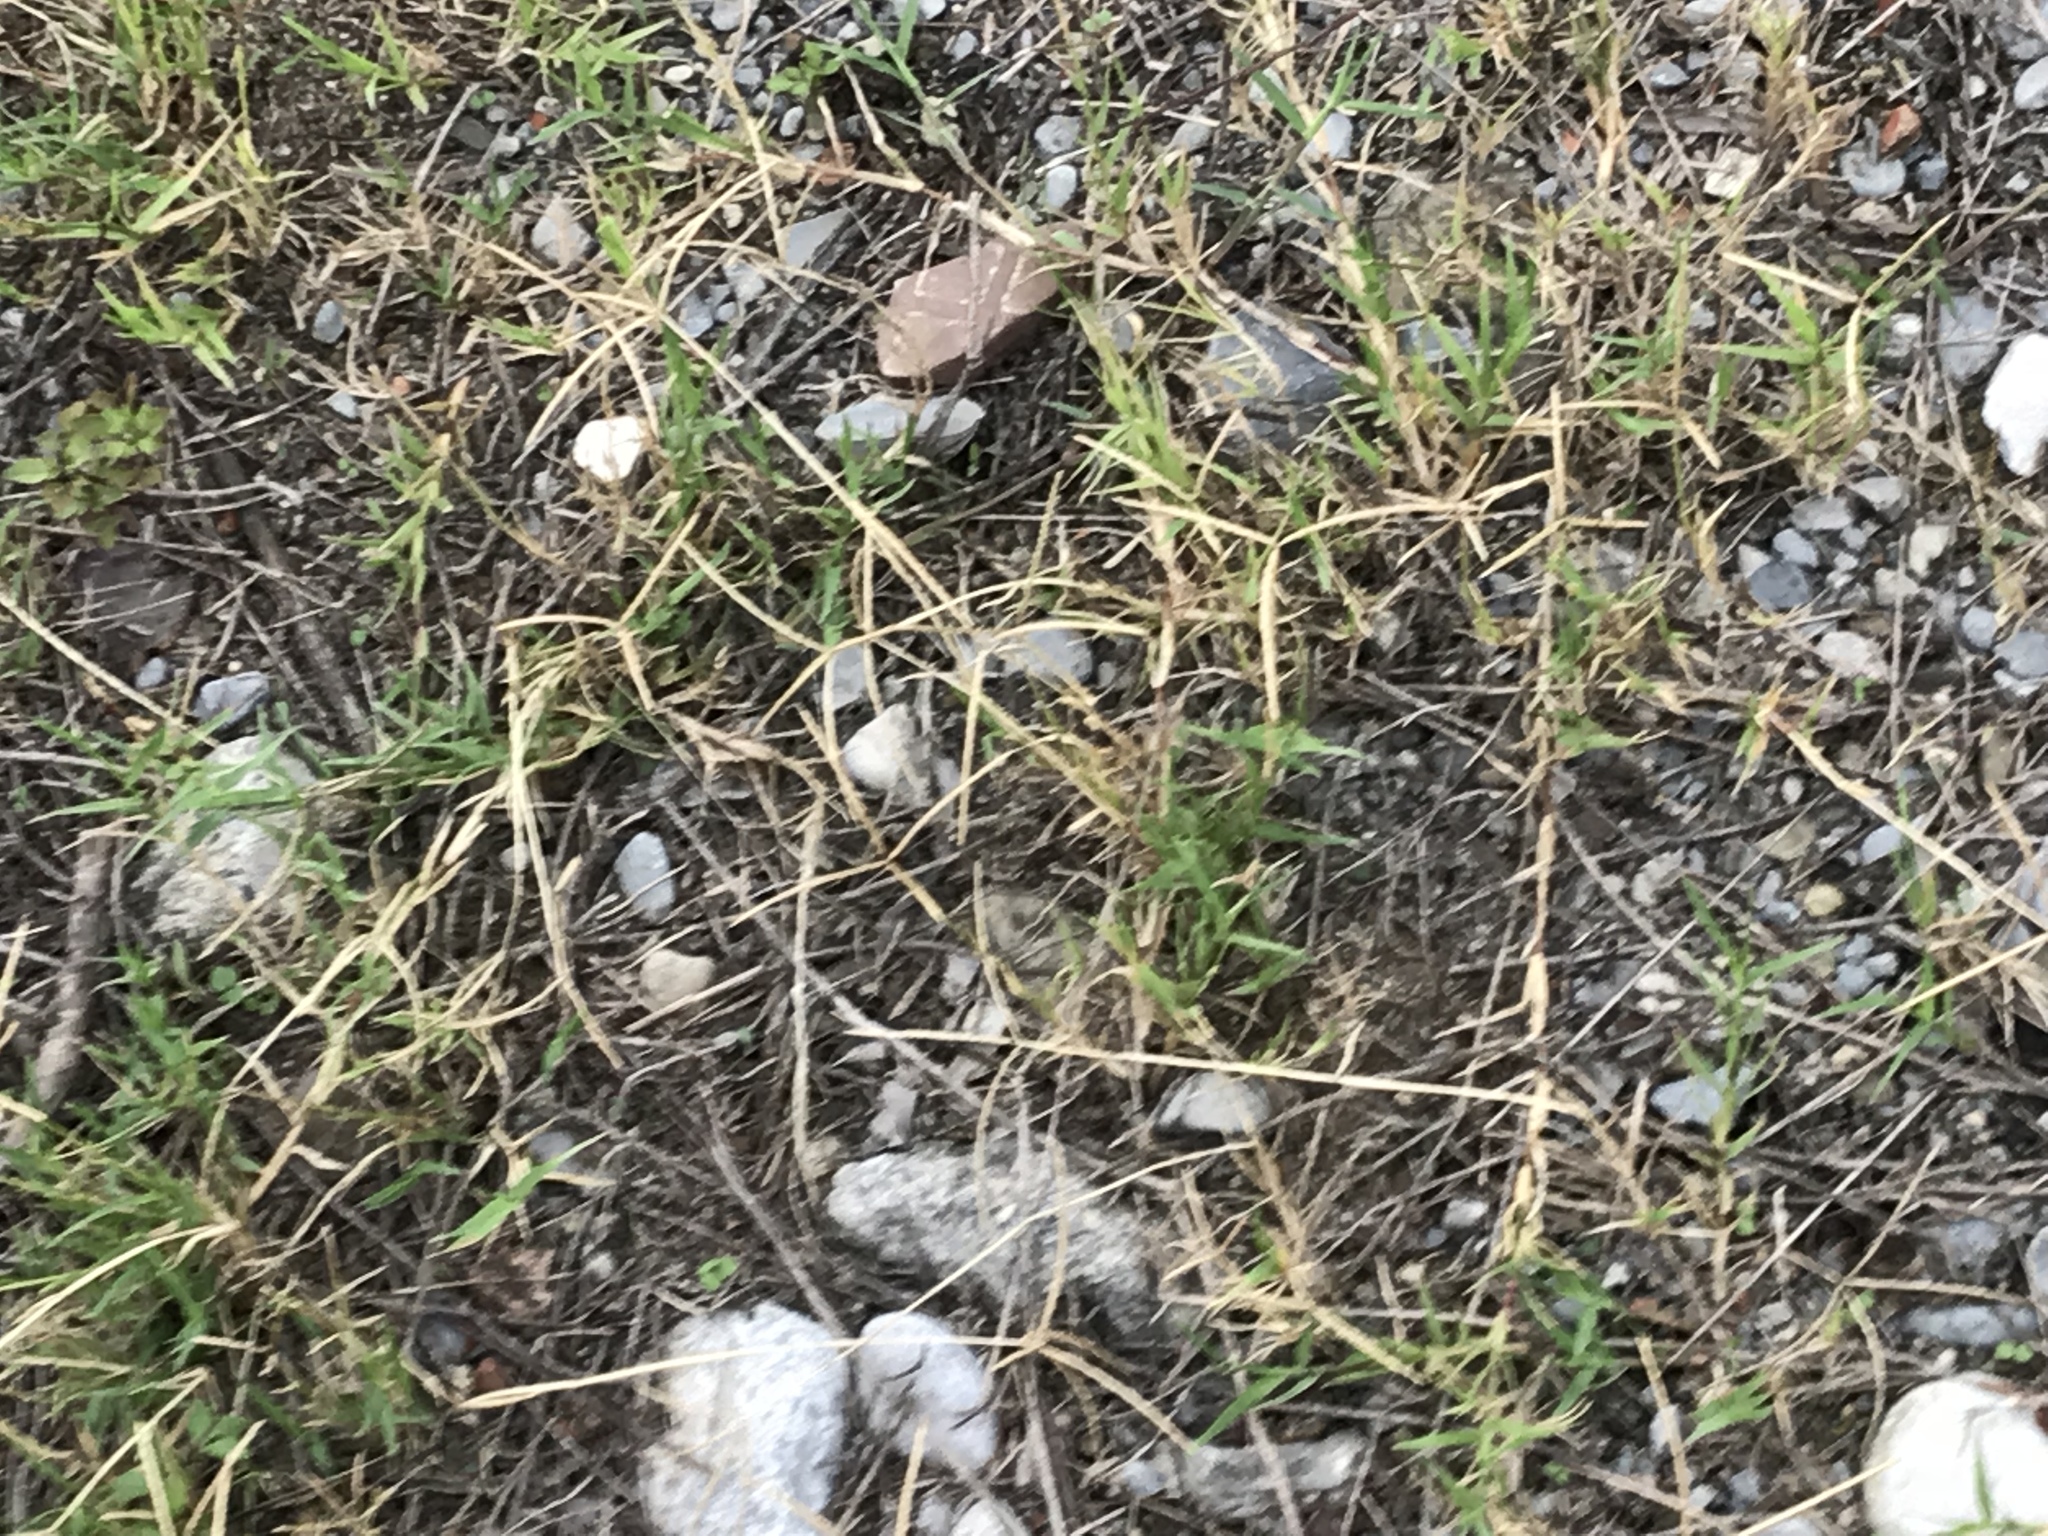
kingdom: Plantae
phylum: Tracheophyta
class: Liliopsida
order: Poales
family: Poaceae
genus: Cynodon
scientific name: Cynodon dactylon
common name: Bermuda grass
